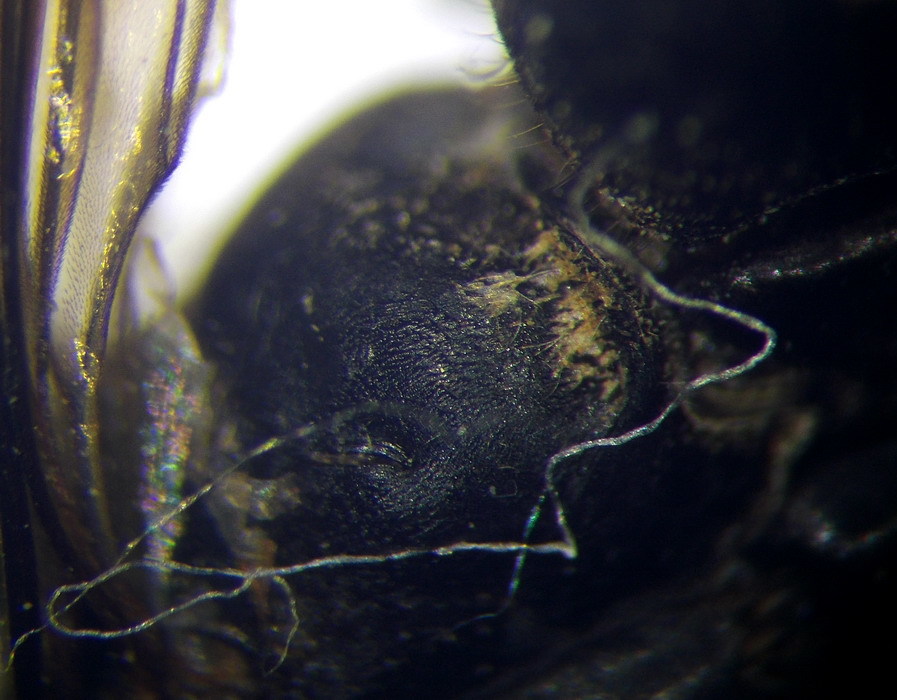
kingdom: Animalia
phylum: Arthropoda
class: Insecta
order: Hymenoptera
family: Pompilidae
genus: Episyron
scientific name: Episyron albonotatum
